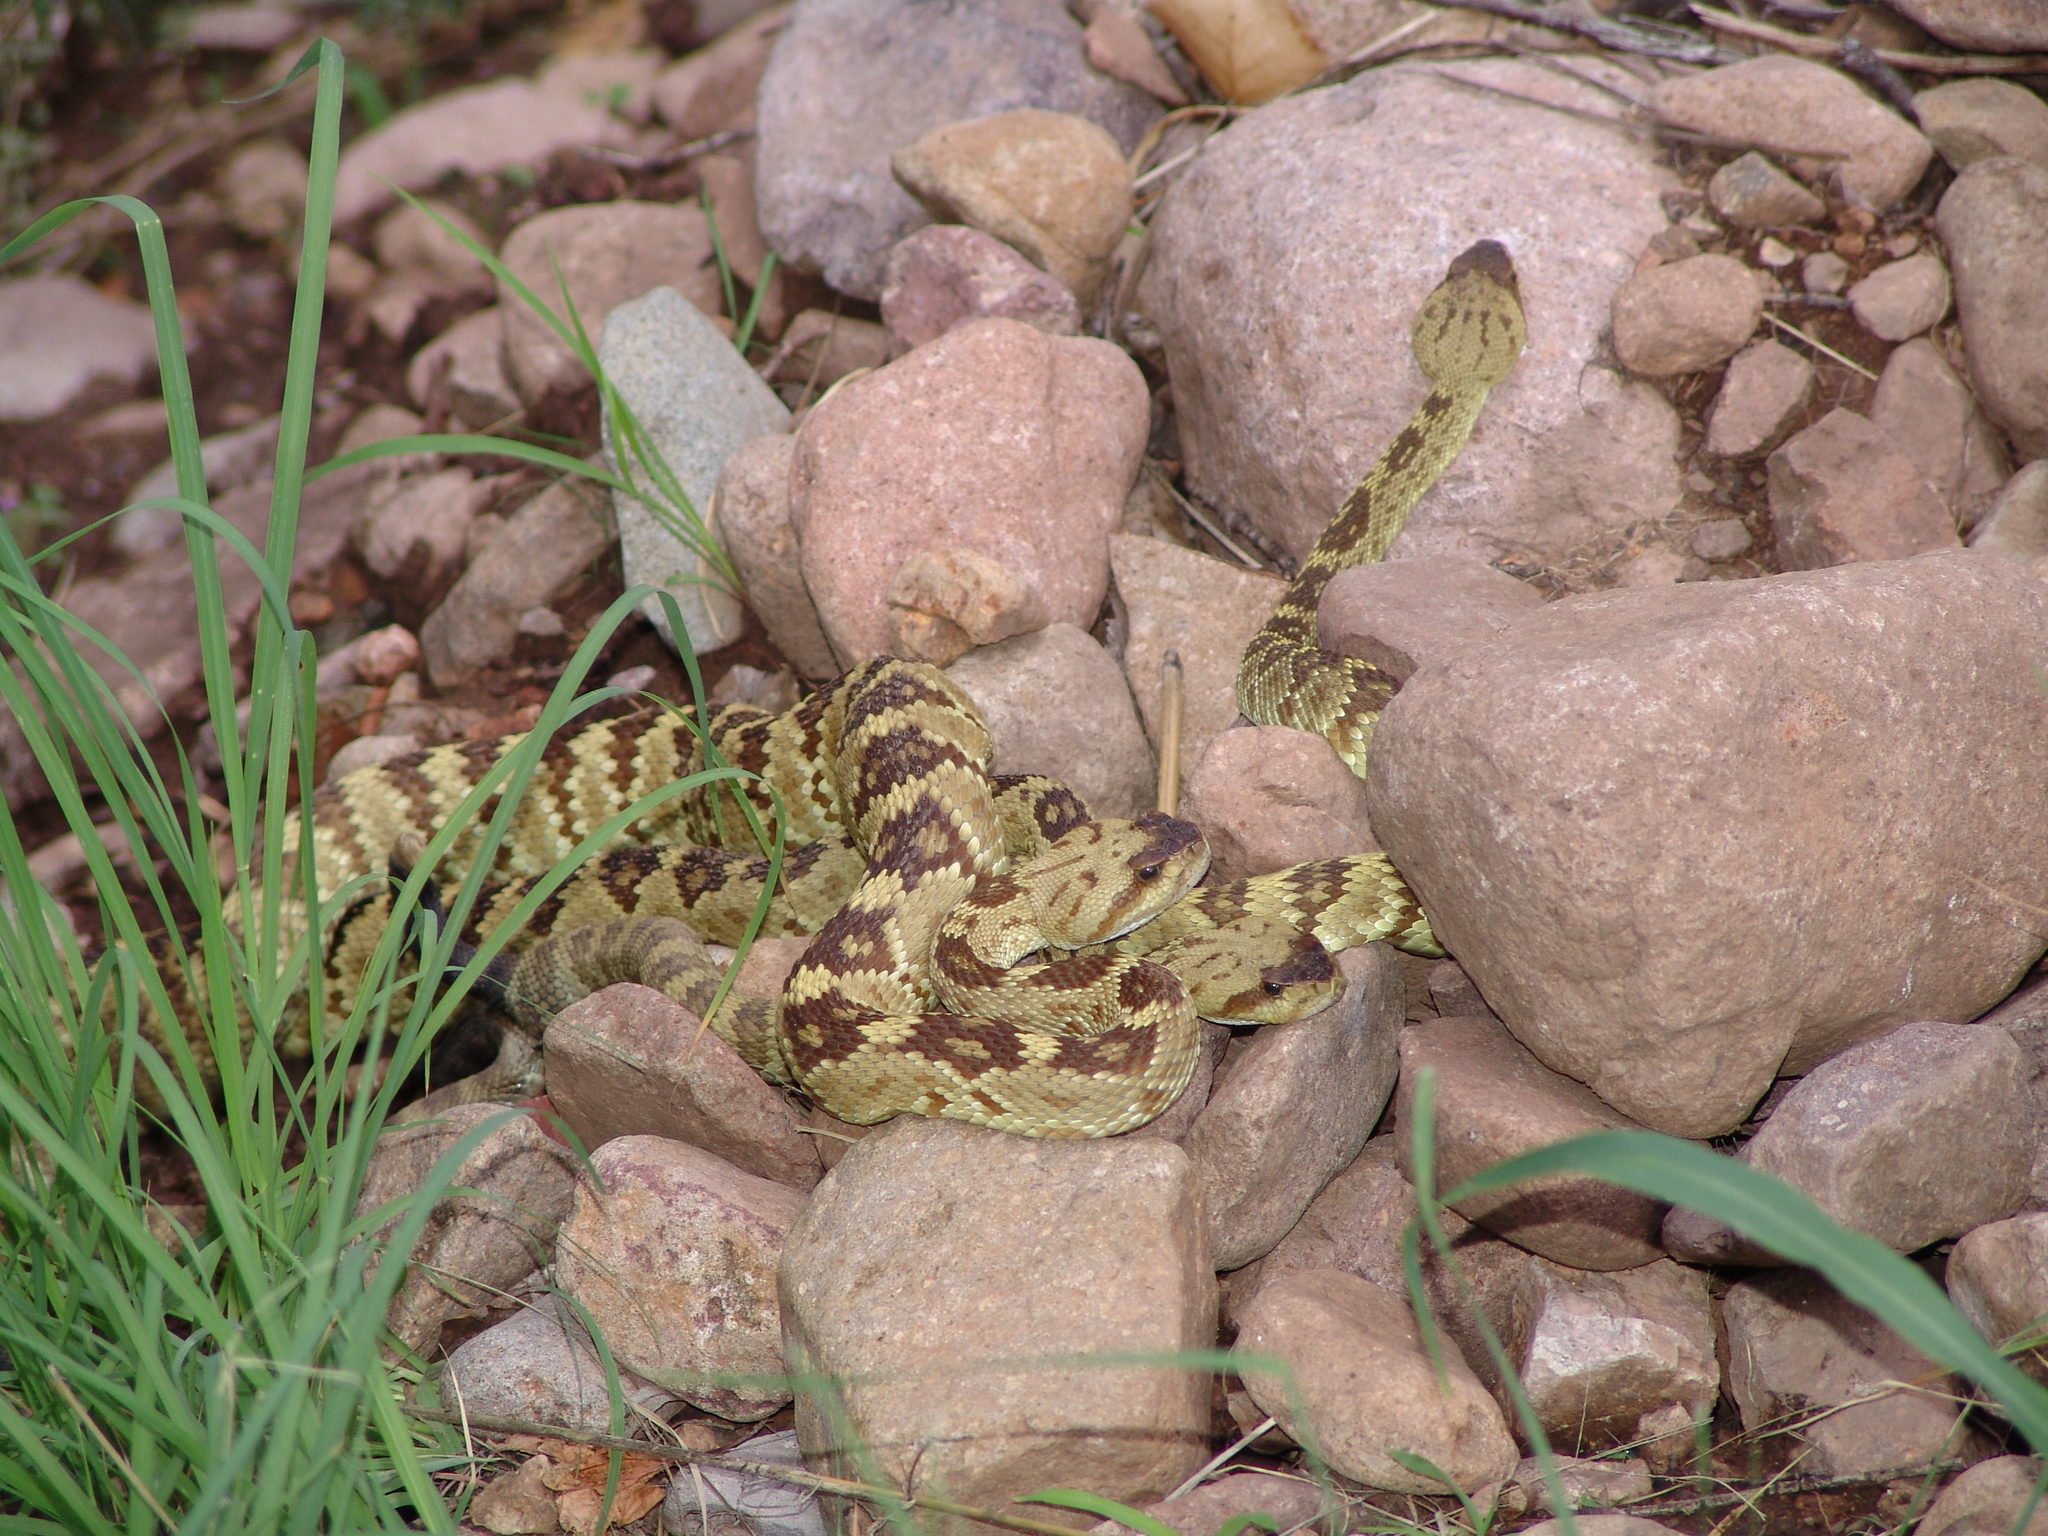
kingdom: Animalia
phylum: Chordata
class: Squamata
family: Viperidae
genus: Crotalus
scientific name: Crotalus molossus
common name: Black tailed rattlesnake
